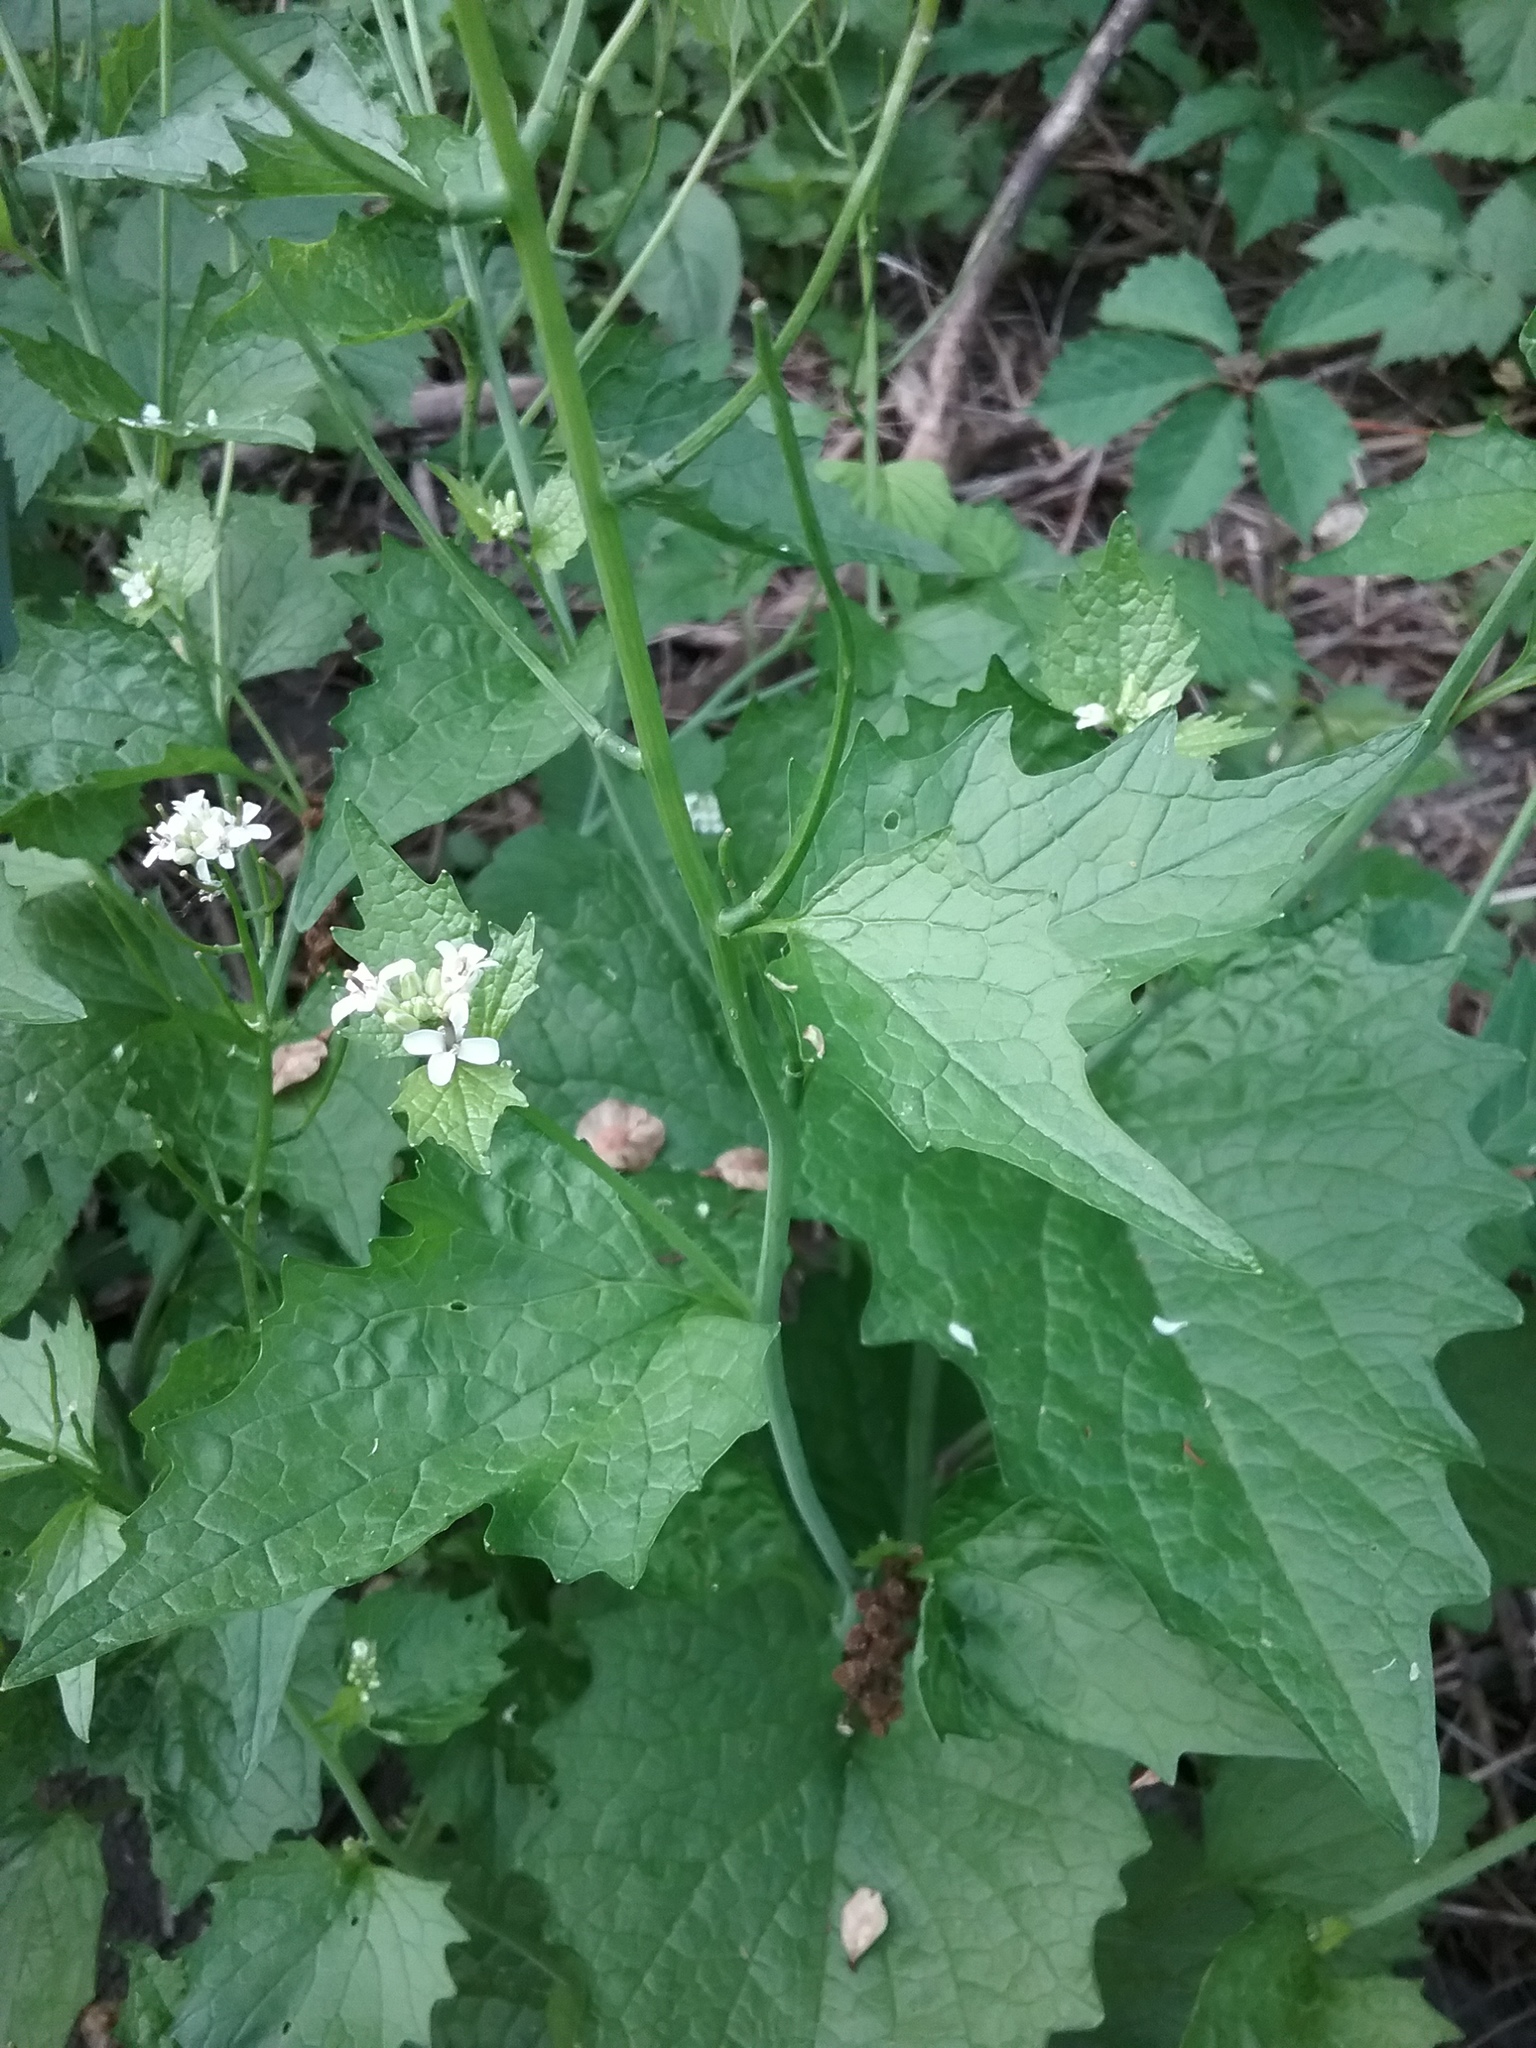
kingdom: Plantae
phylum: Tracheophyta
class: Magnoliopsida
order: Brassicales
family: Brassicaceae
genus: Alliaria
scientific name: Alliaria petiolata
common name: Garlic mustard
